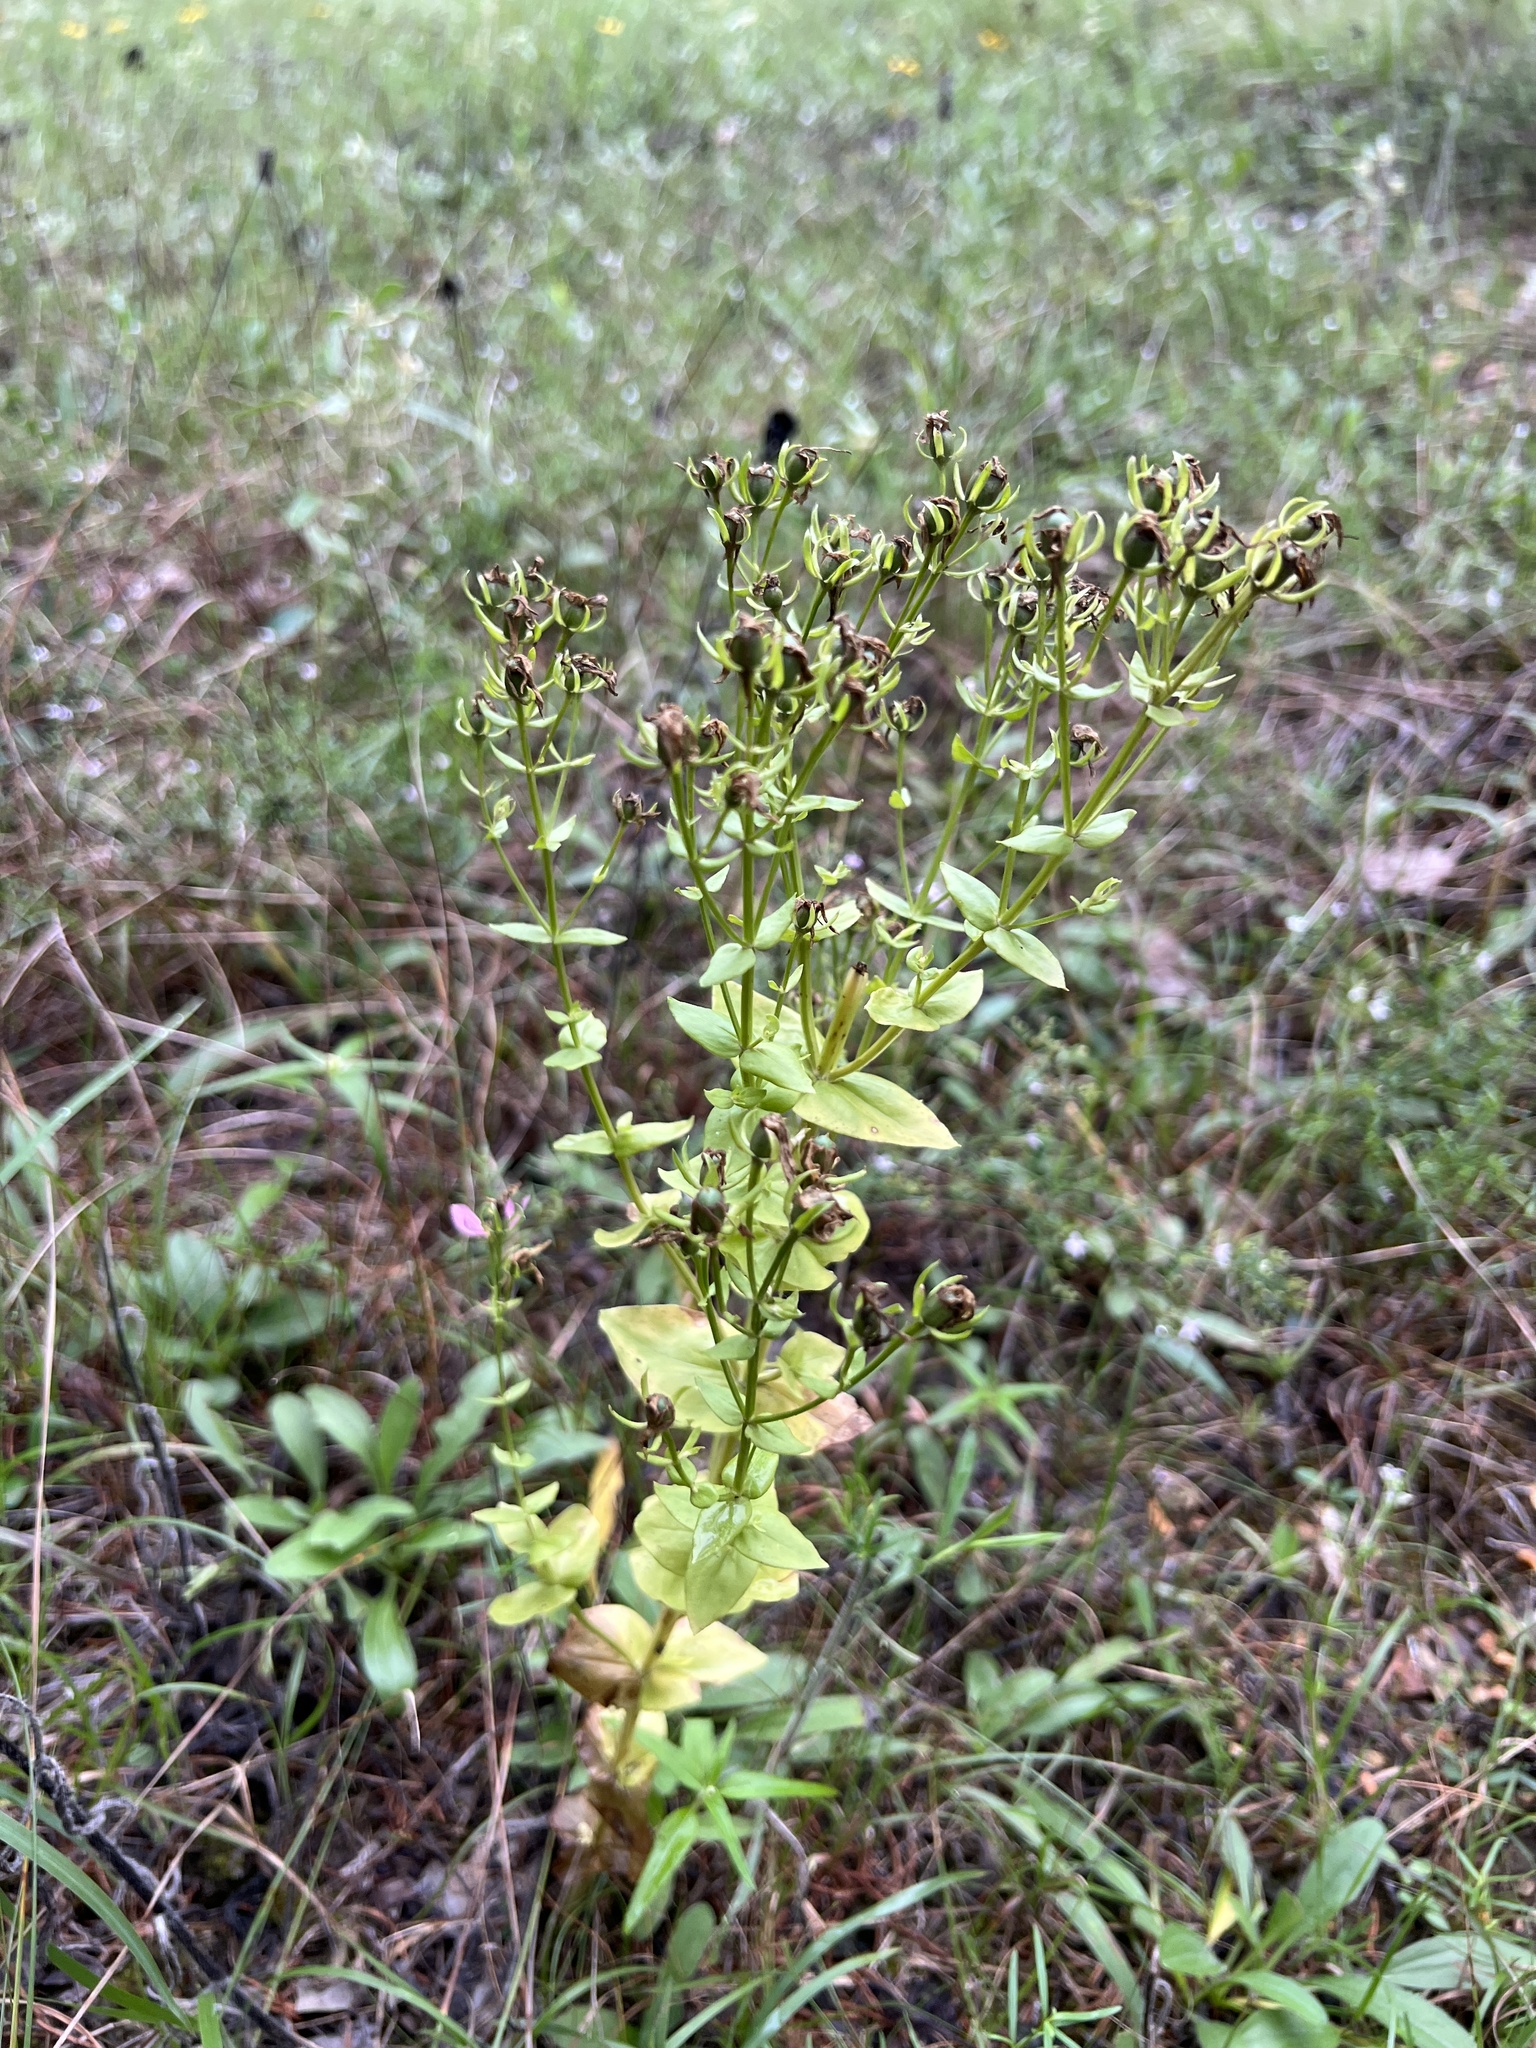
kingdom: Plantae
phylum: Tracheophyta
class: Magnoliopsida
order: Gentianales
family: Gentianaceae
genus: Sabatia
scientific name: Sabatia angularis
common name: Rose-pink
